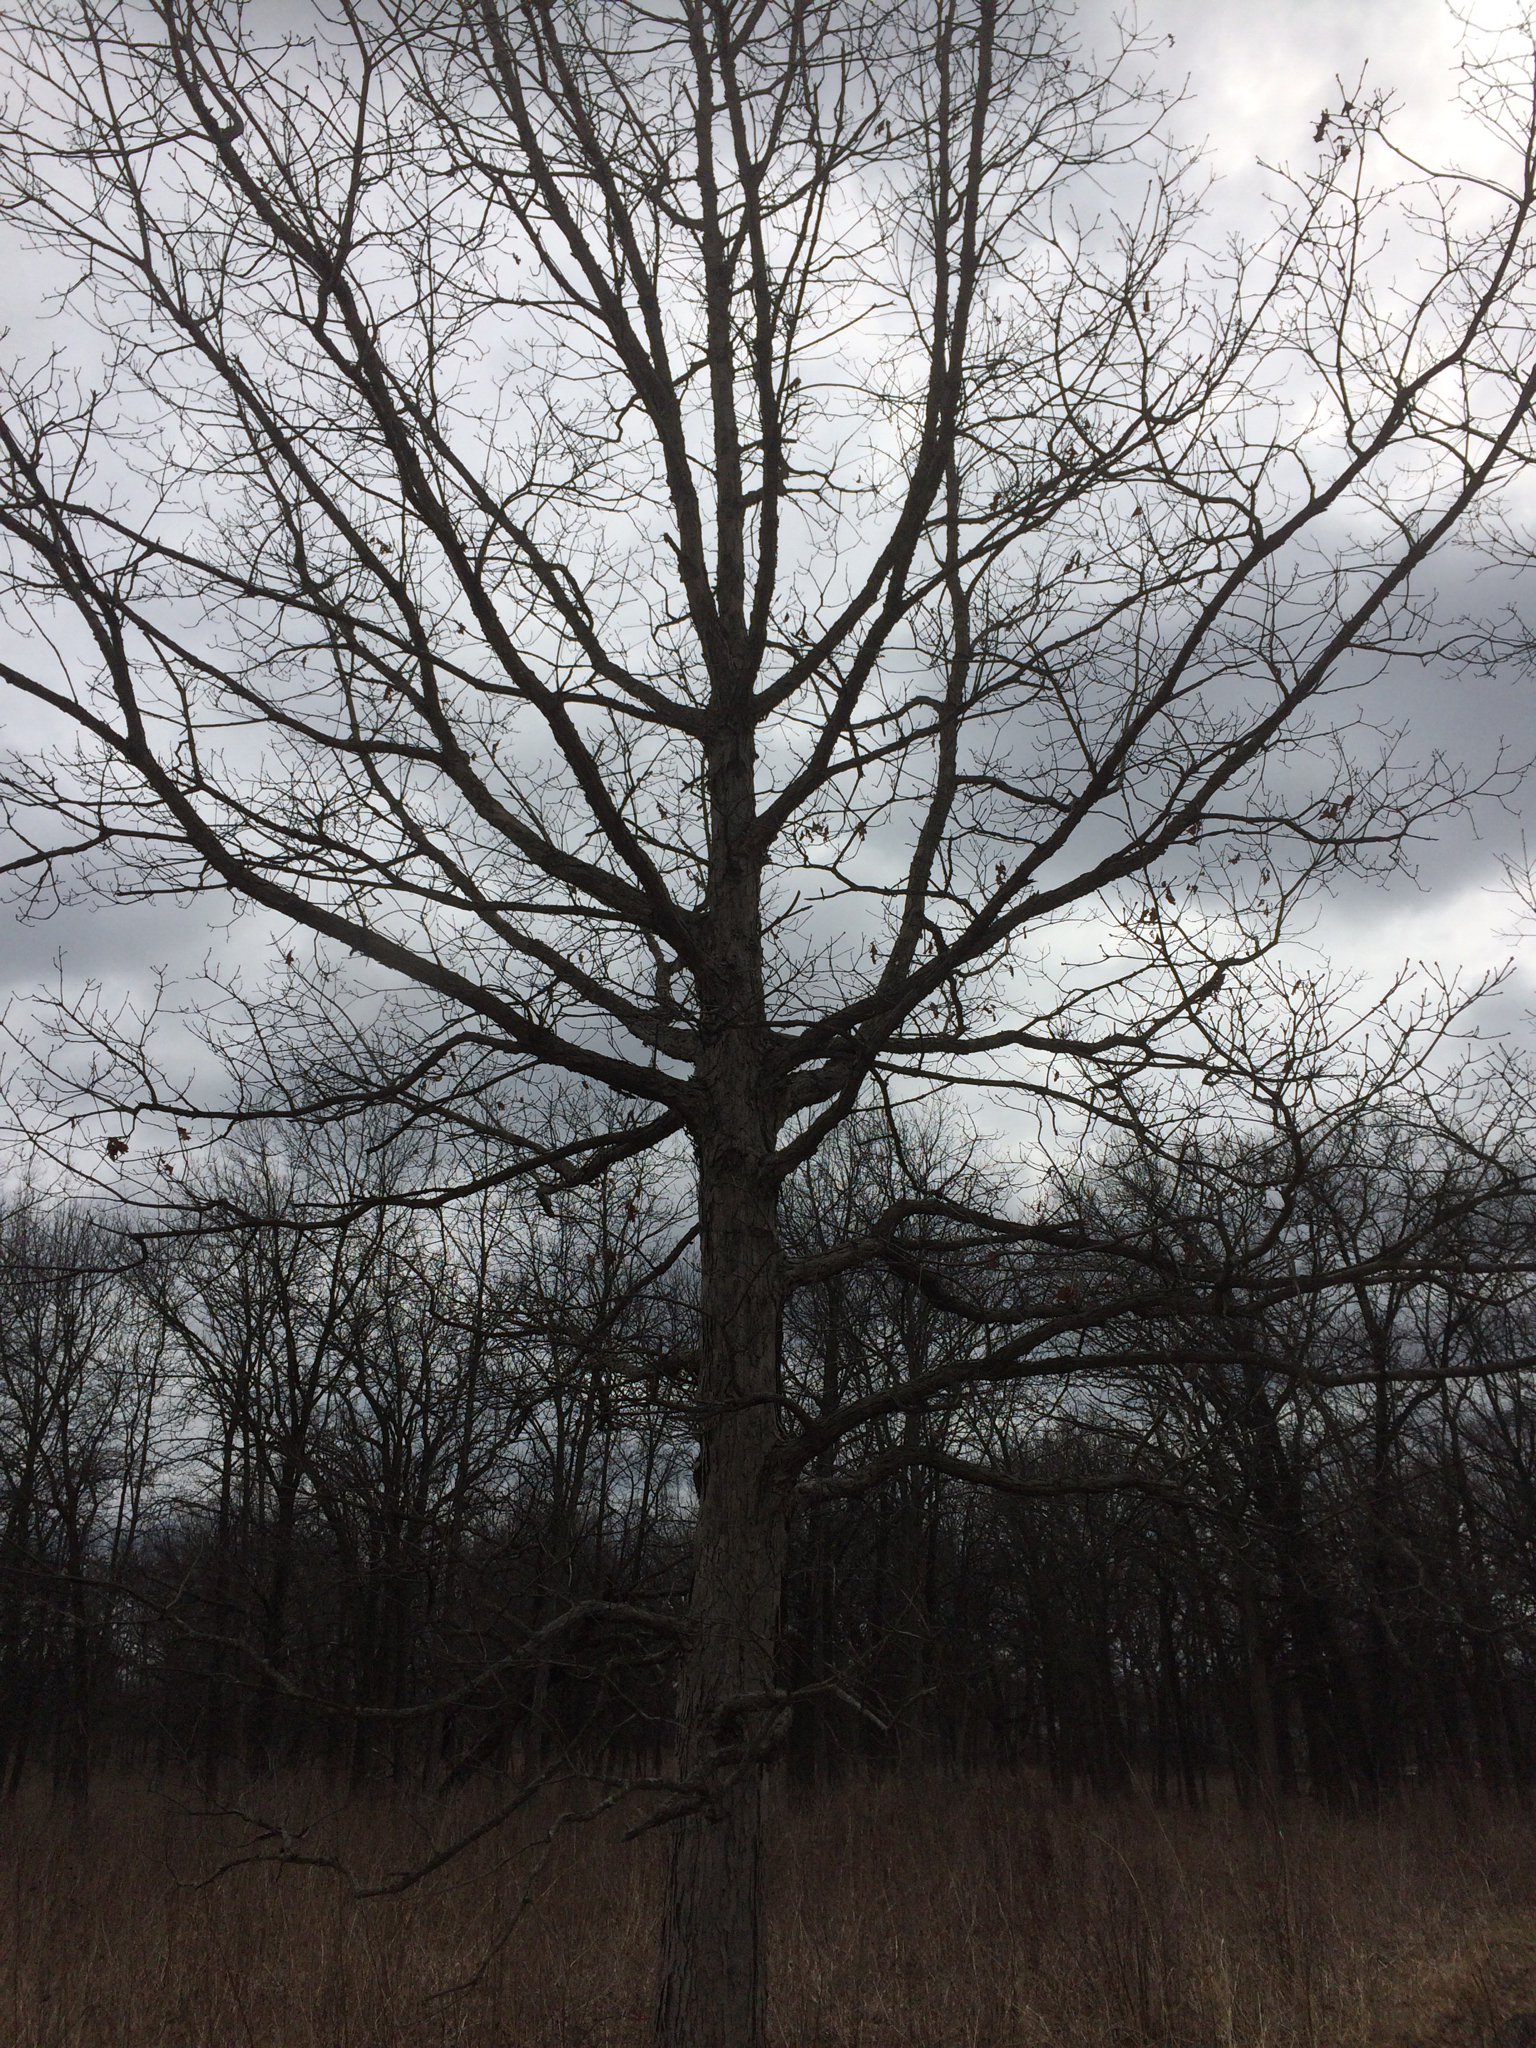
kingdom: Plantae
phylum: Tracheophyta
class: Magnoliopsida
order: Fagales
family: Fagaceae
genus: Quercus
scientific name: Quercus alba
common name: White oak
